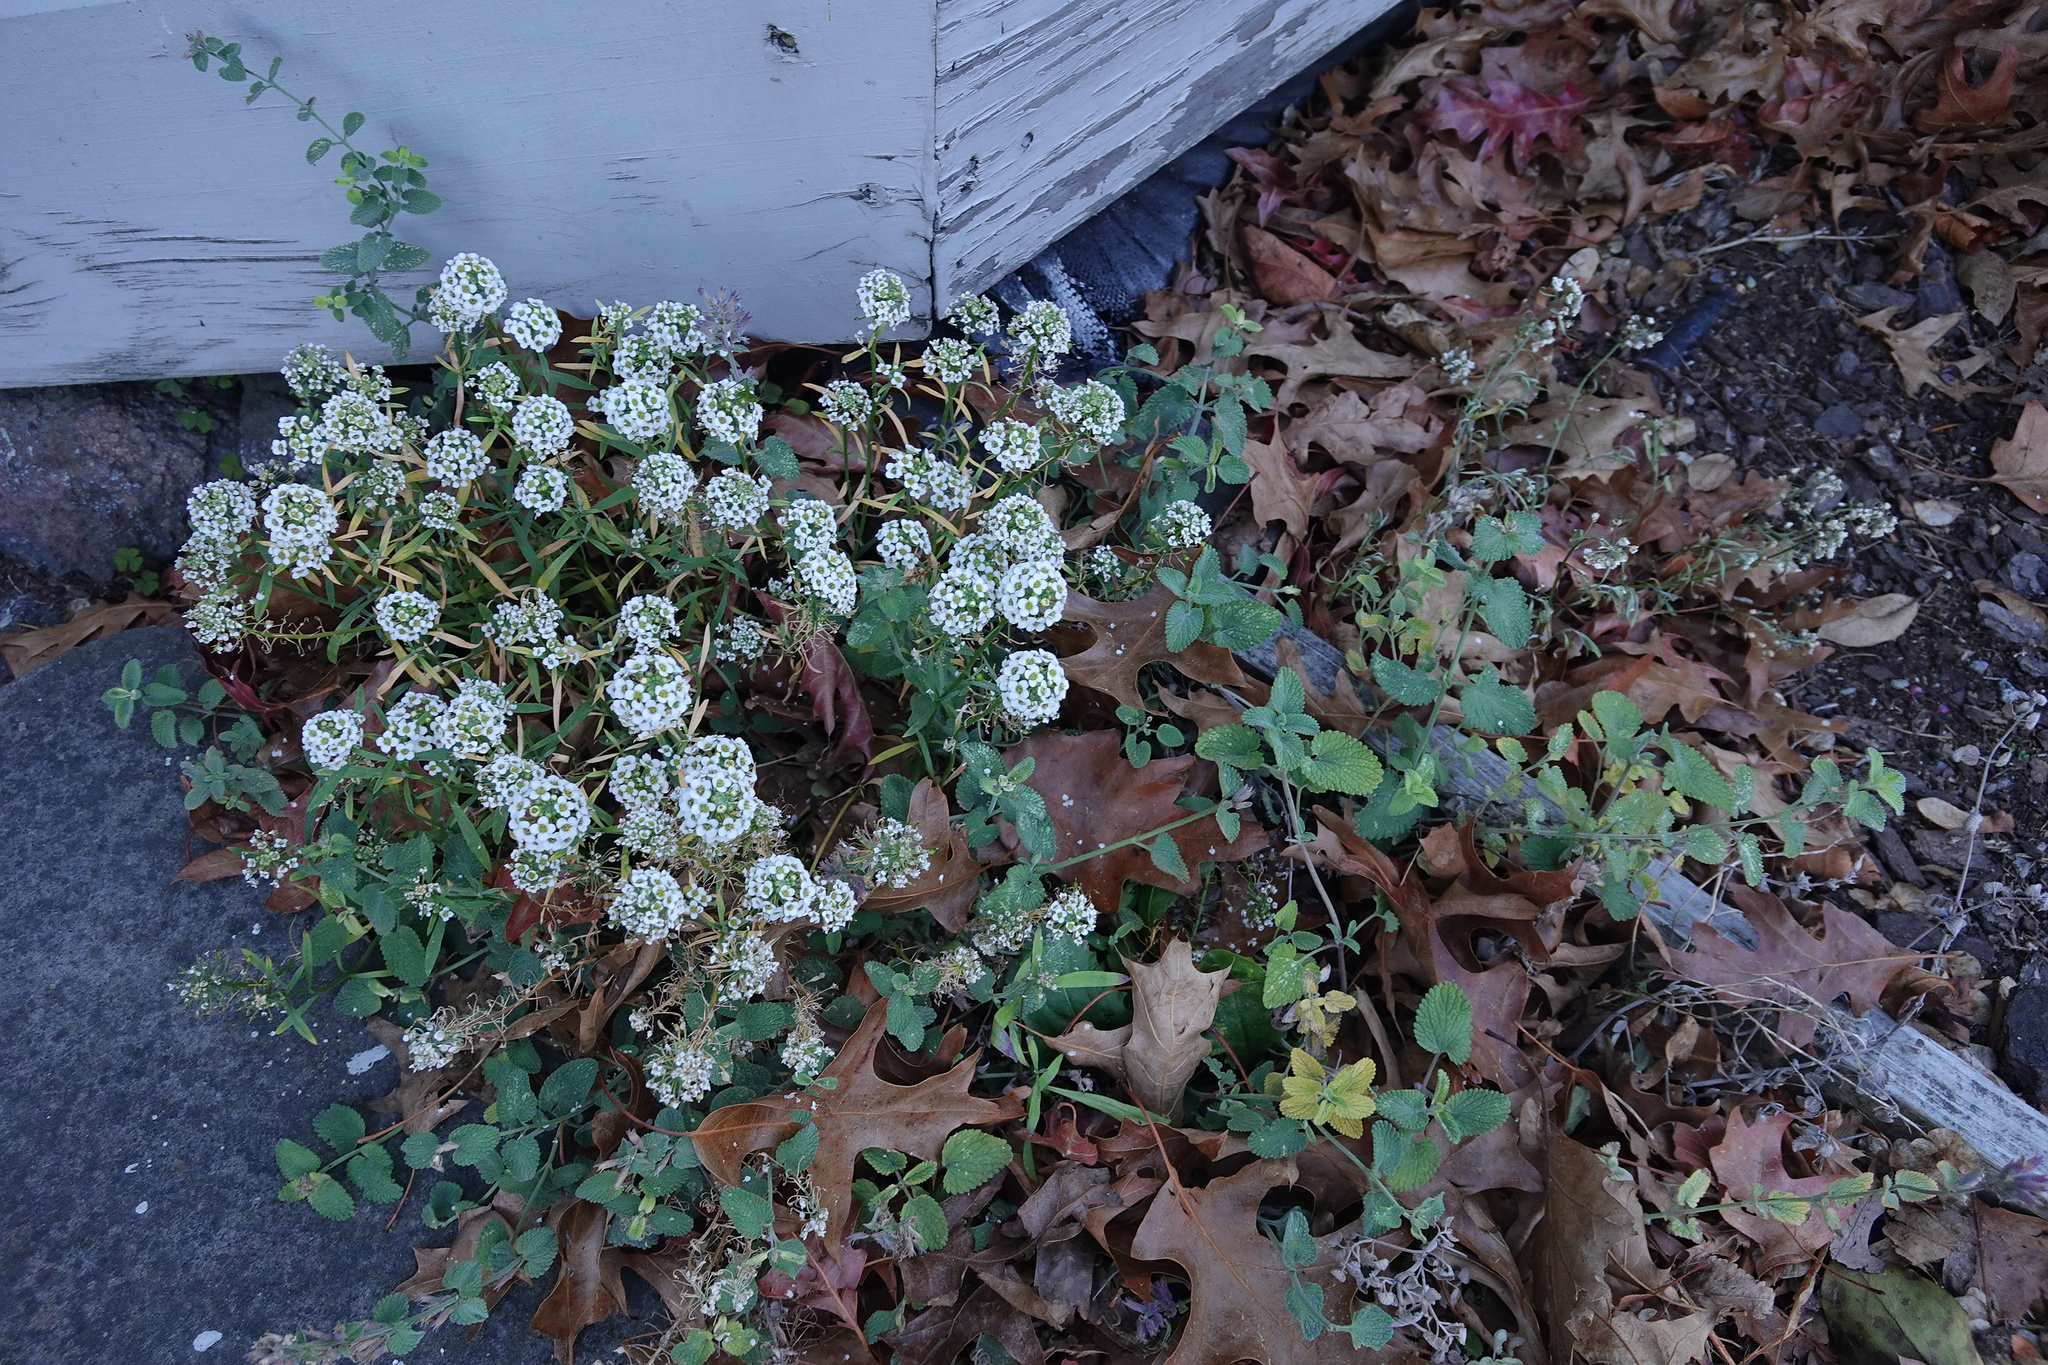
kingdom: Plantae
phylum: Tracheophyta
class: Magnoliopsida
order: Brassicales
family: Brassicaceae
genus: Lobularia
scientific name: Lobularia maritima
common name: Sweet alison
